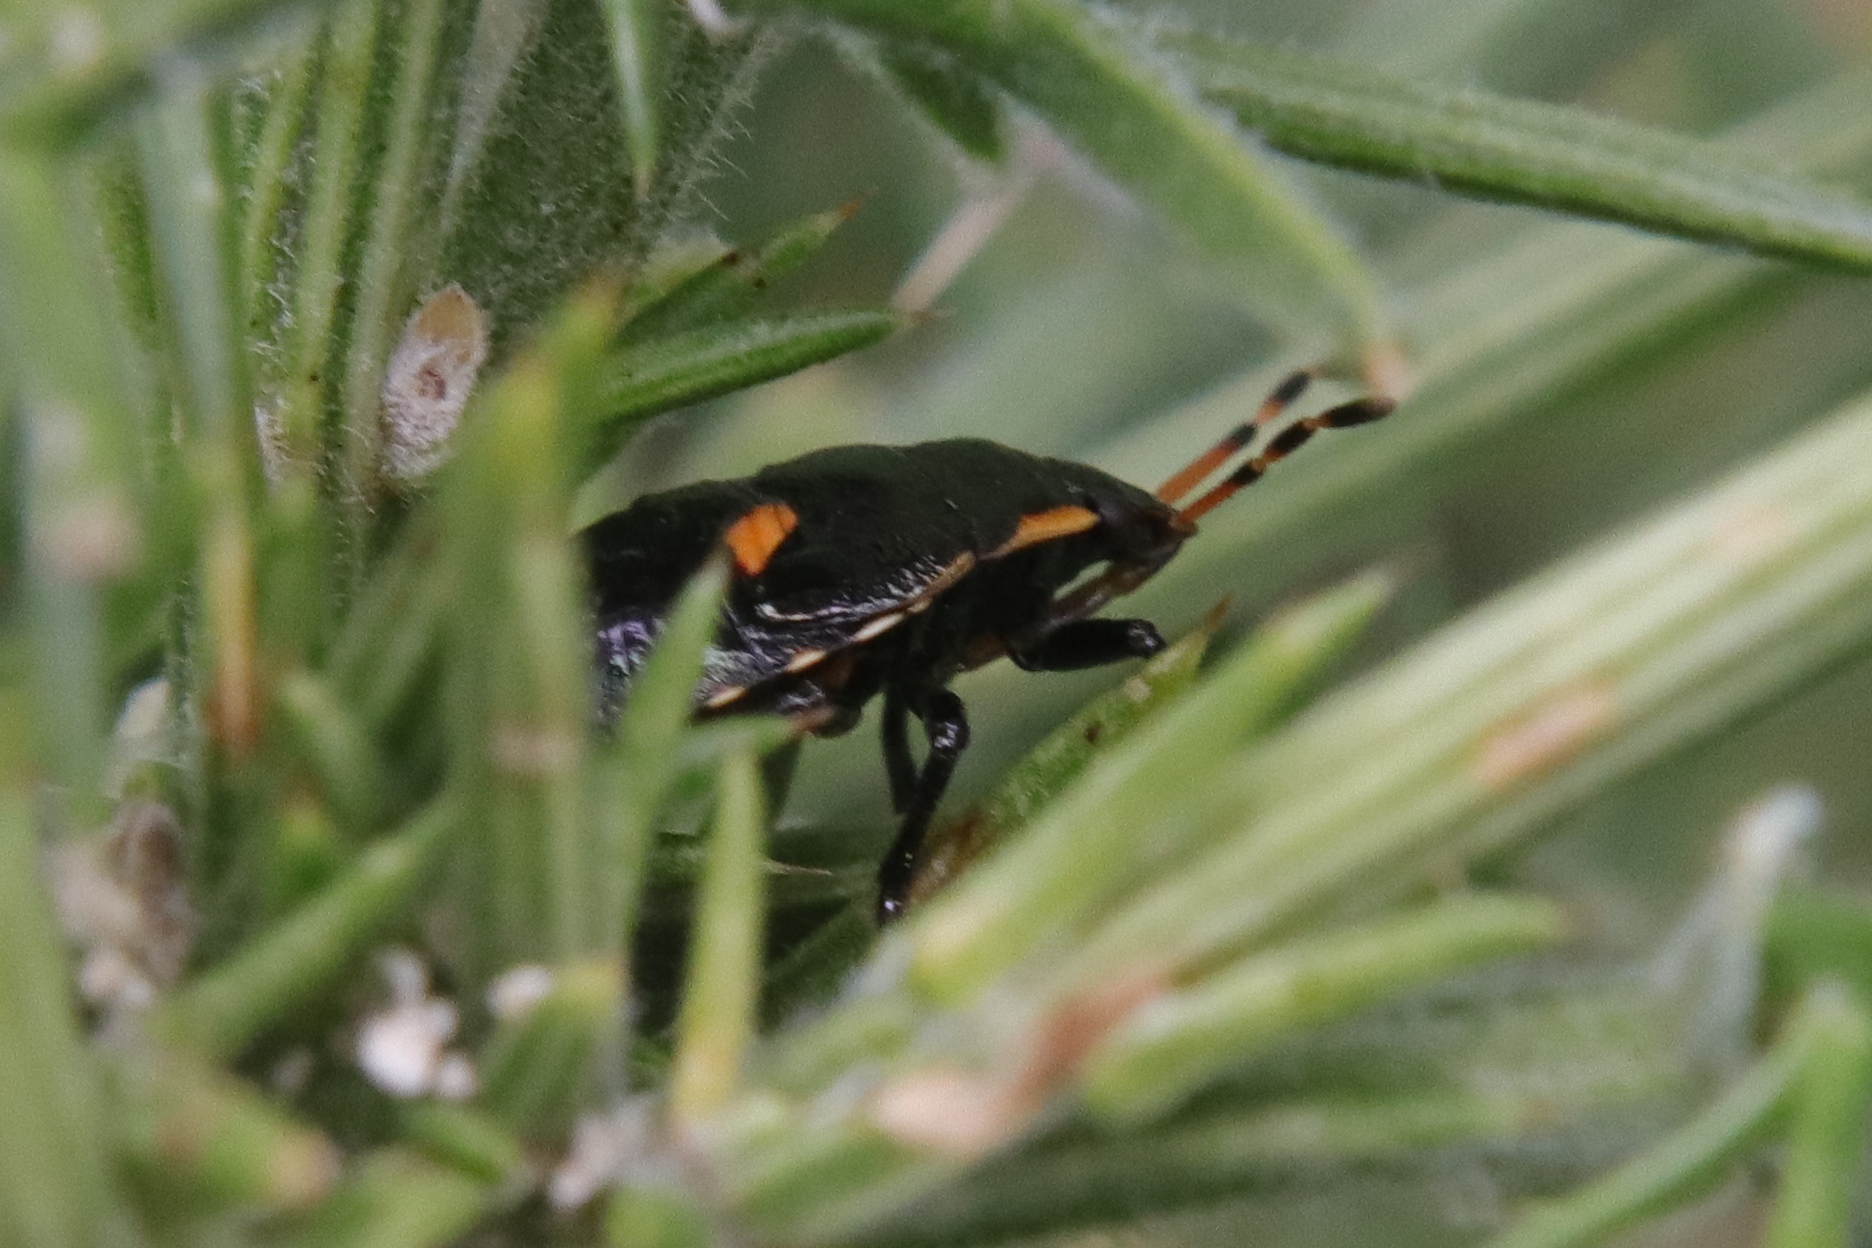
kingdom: Animalia
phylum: Arthropoda
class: Insecta
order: Hemiptera
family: Pentatomidae
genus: Cermatulus
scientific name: Cermatulus nasalis
